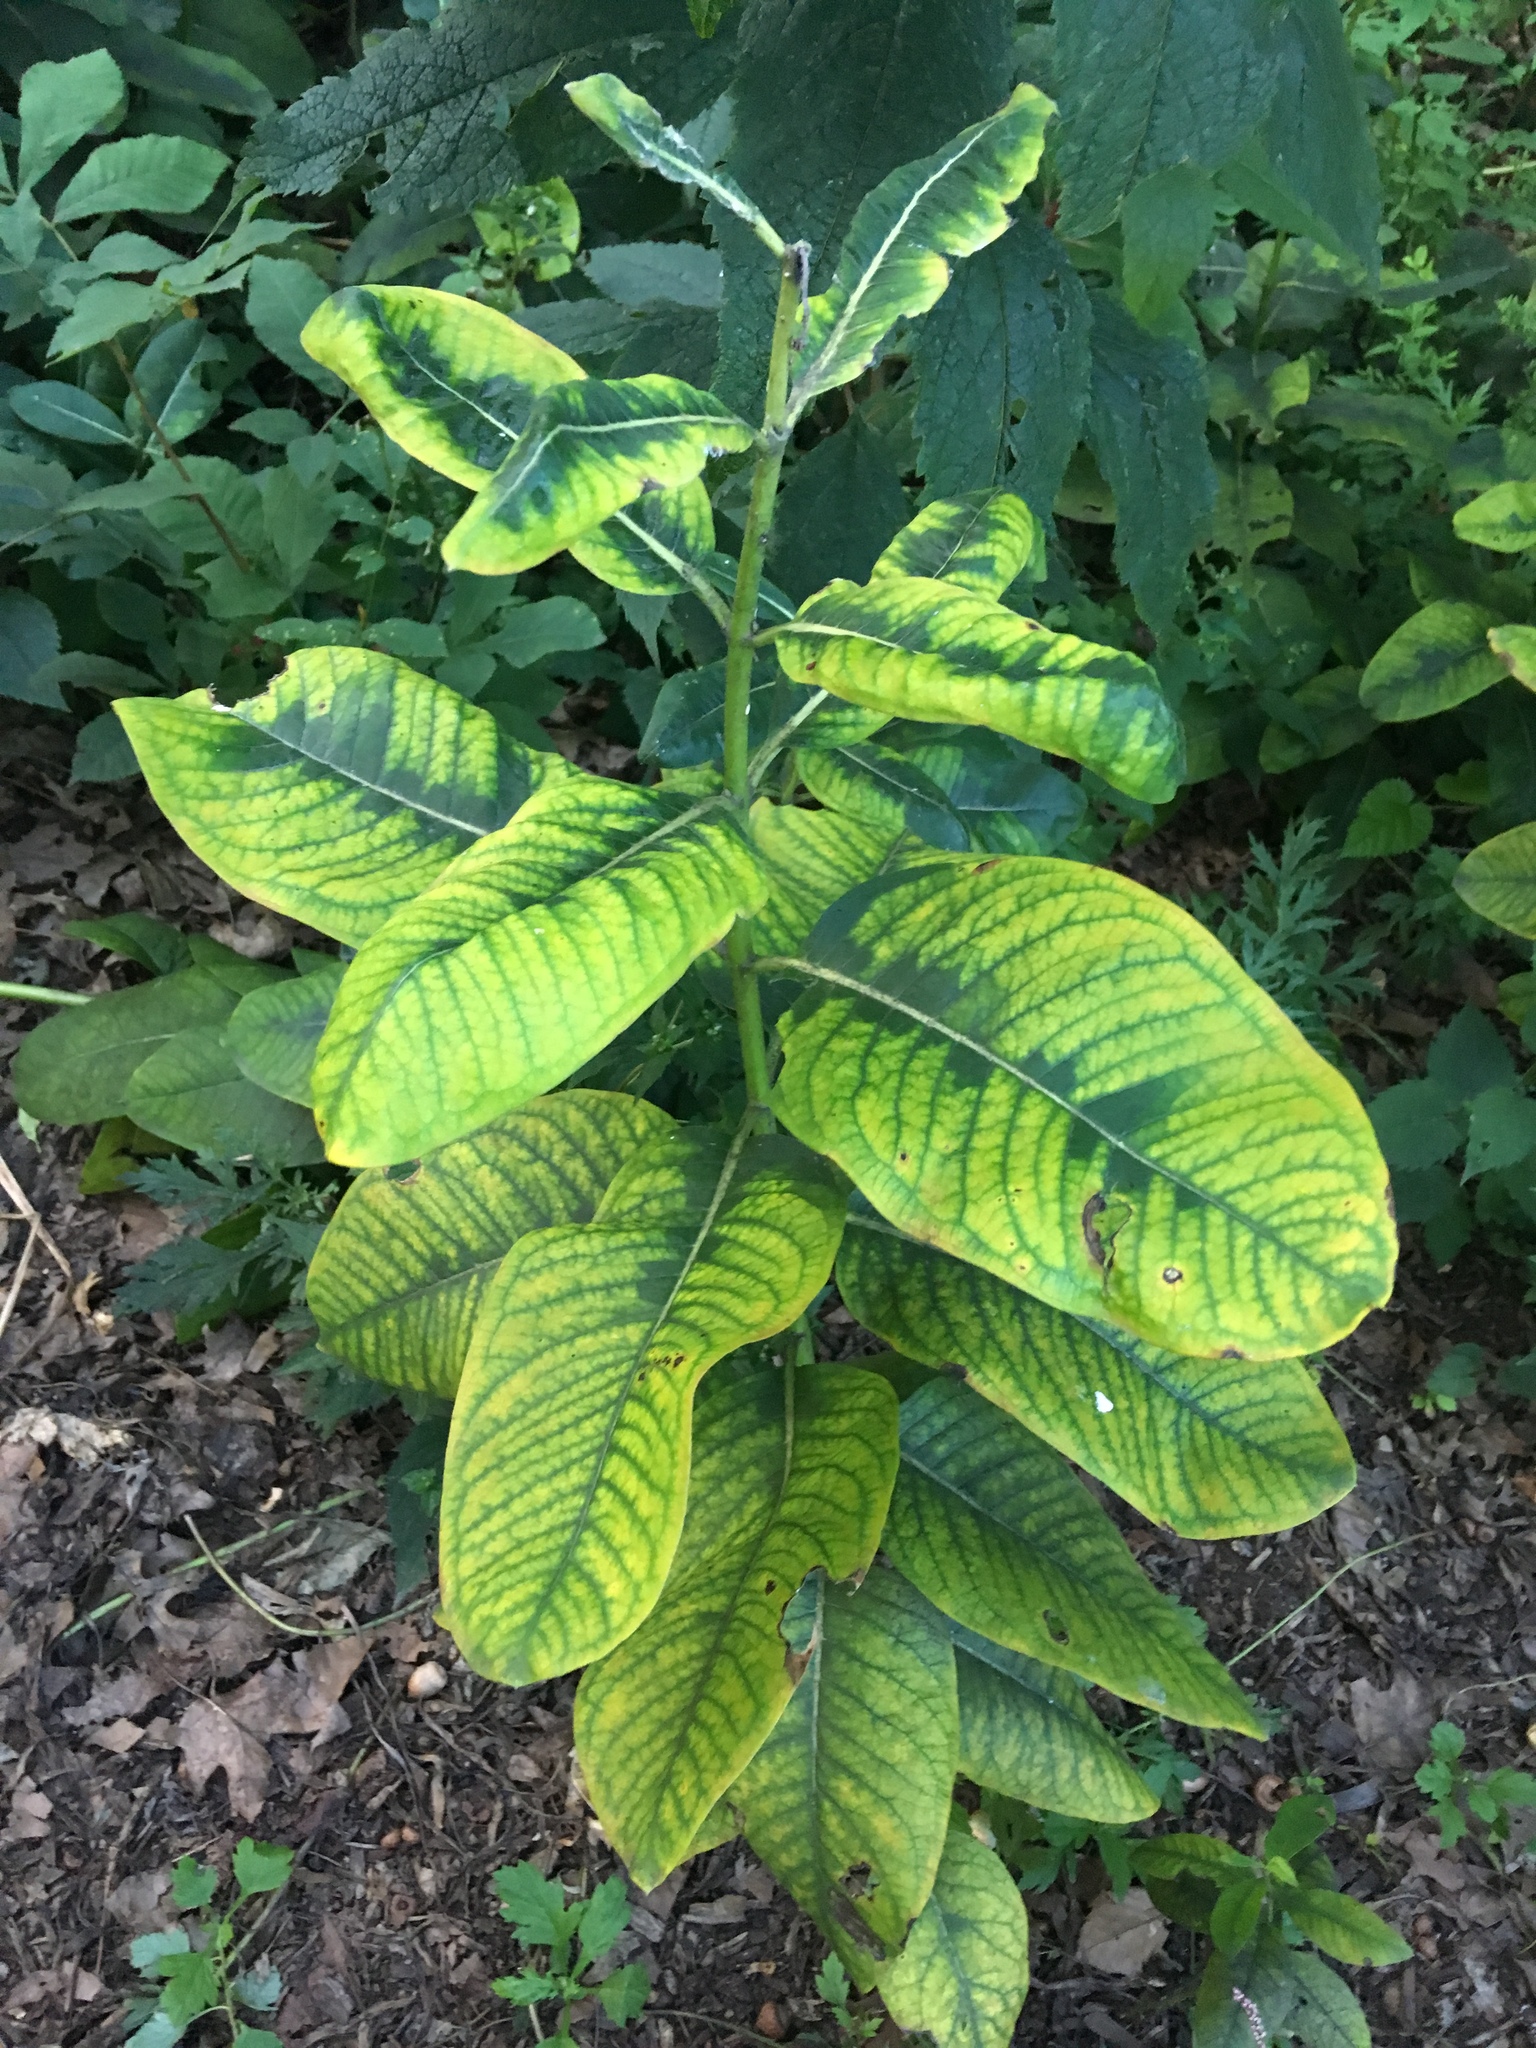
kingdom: Plantae
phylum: Tracheophyta
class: Magnoliopsida
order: Gentianales
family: Apocynaceae
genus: Asclepias
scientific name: Asclepias syriaca
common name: Common milkweed
